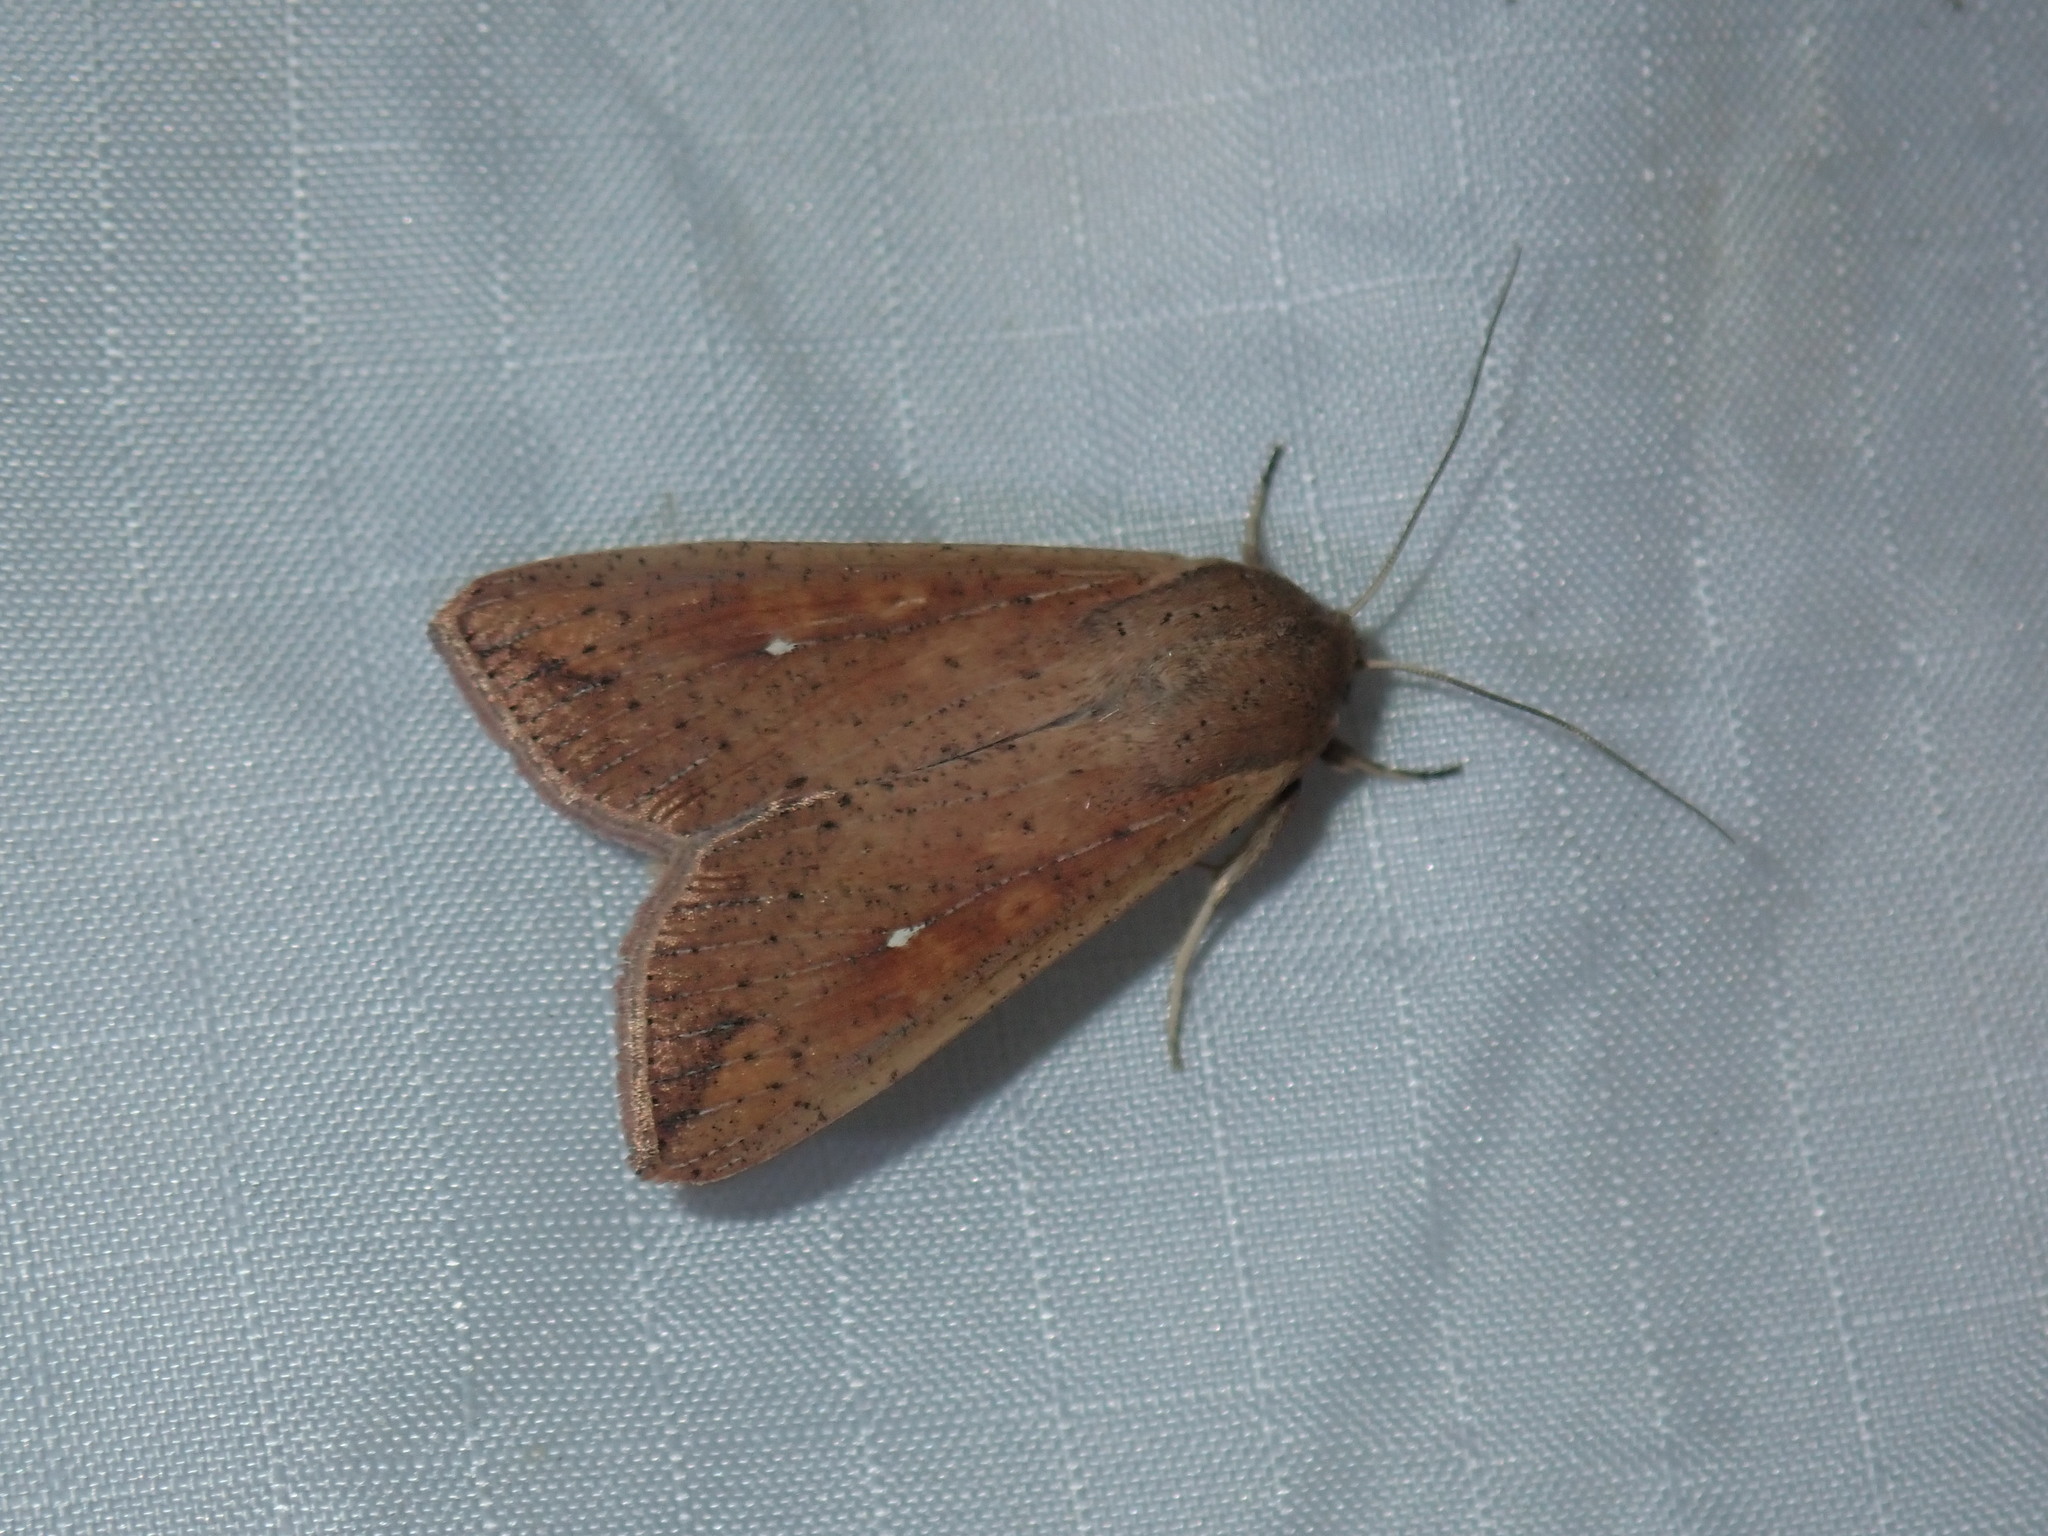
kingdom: Animalia
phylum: Arthropoda
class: Insecta
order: Lepidoptera
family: Noctuidae
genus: Mythimna
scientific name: Mythimna unipuncta
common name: White-speck
